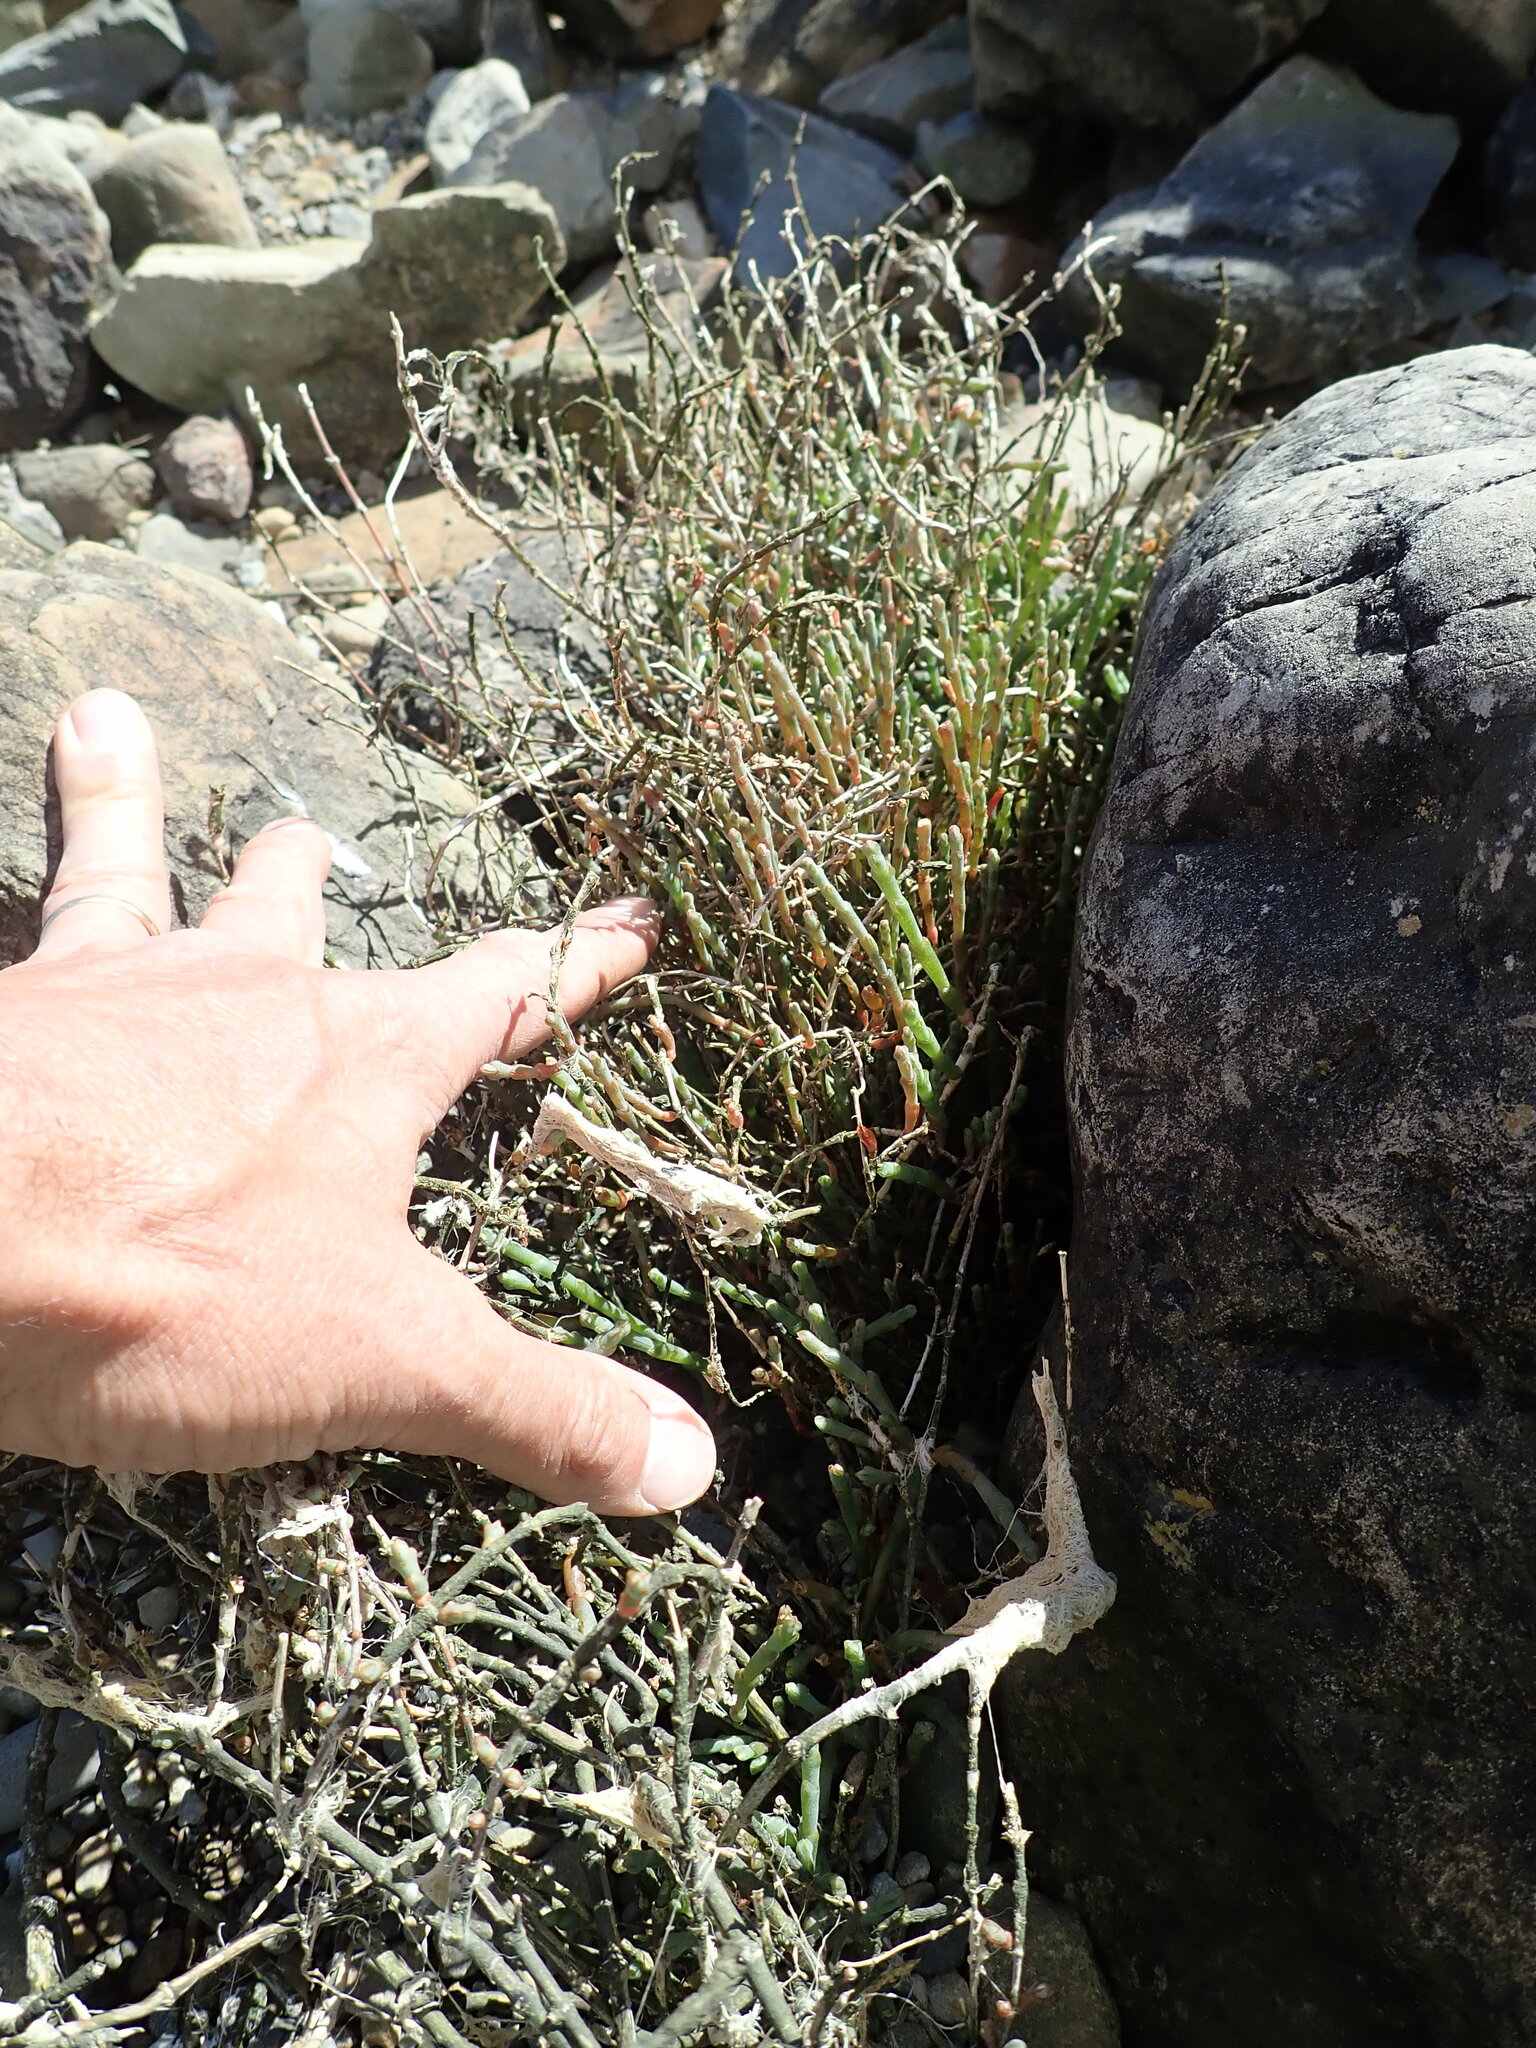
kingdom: Plantae
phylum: Tracheophyta
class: Magnoliopsida
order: Caryophyllales
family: Amaranthaceae
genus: Salicornia
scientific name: Salicornia quinqueflora
